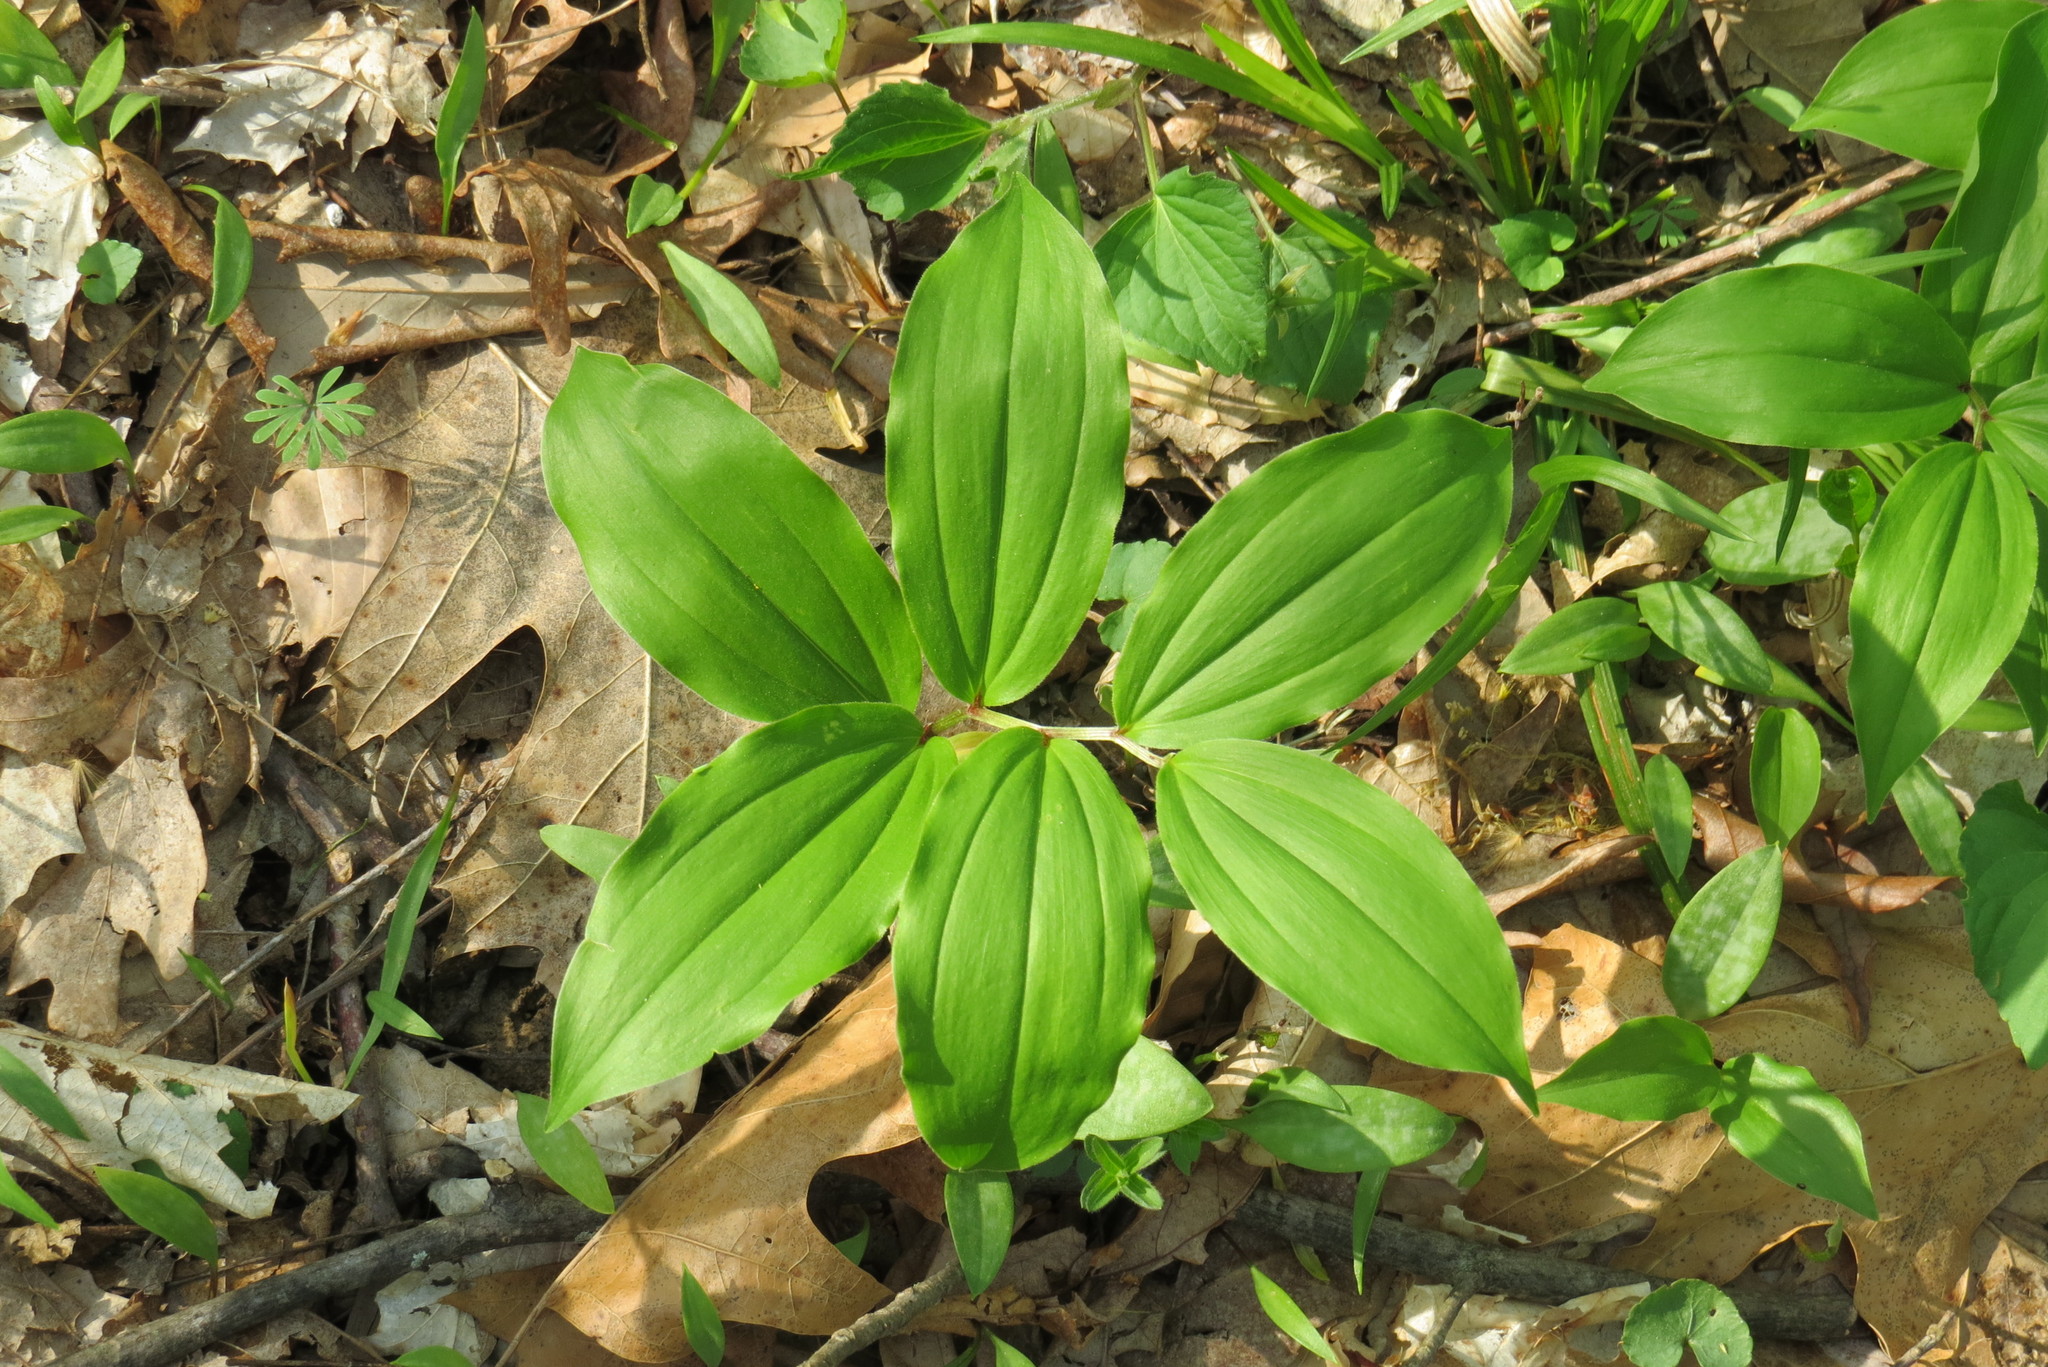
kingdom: Plantae
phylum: Tracheophyta
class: Liliopsida
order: Asparagales
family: Asparagaceae
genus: Maianthemum
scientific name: Maianthemum racemosum
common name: False spikenard
